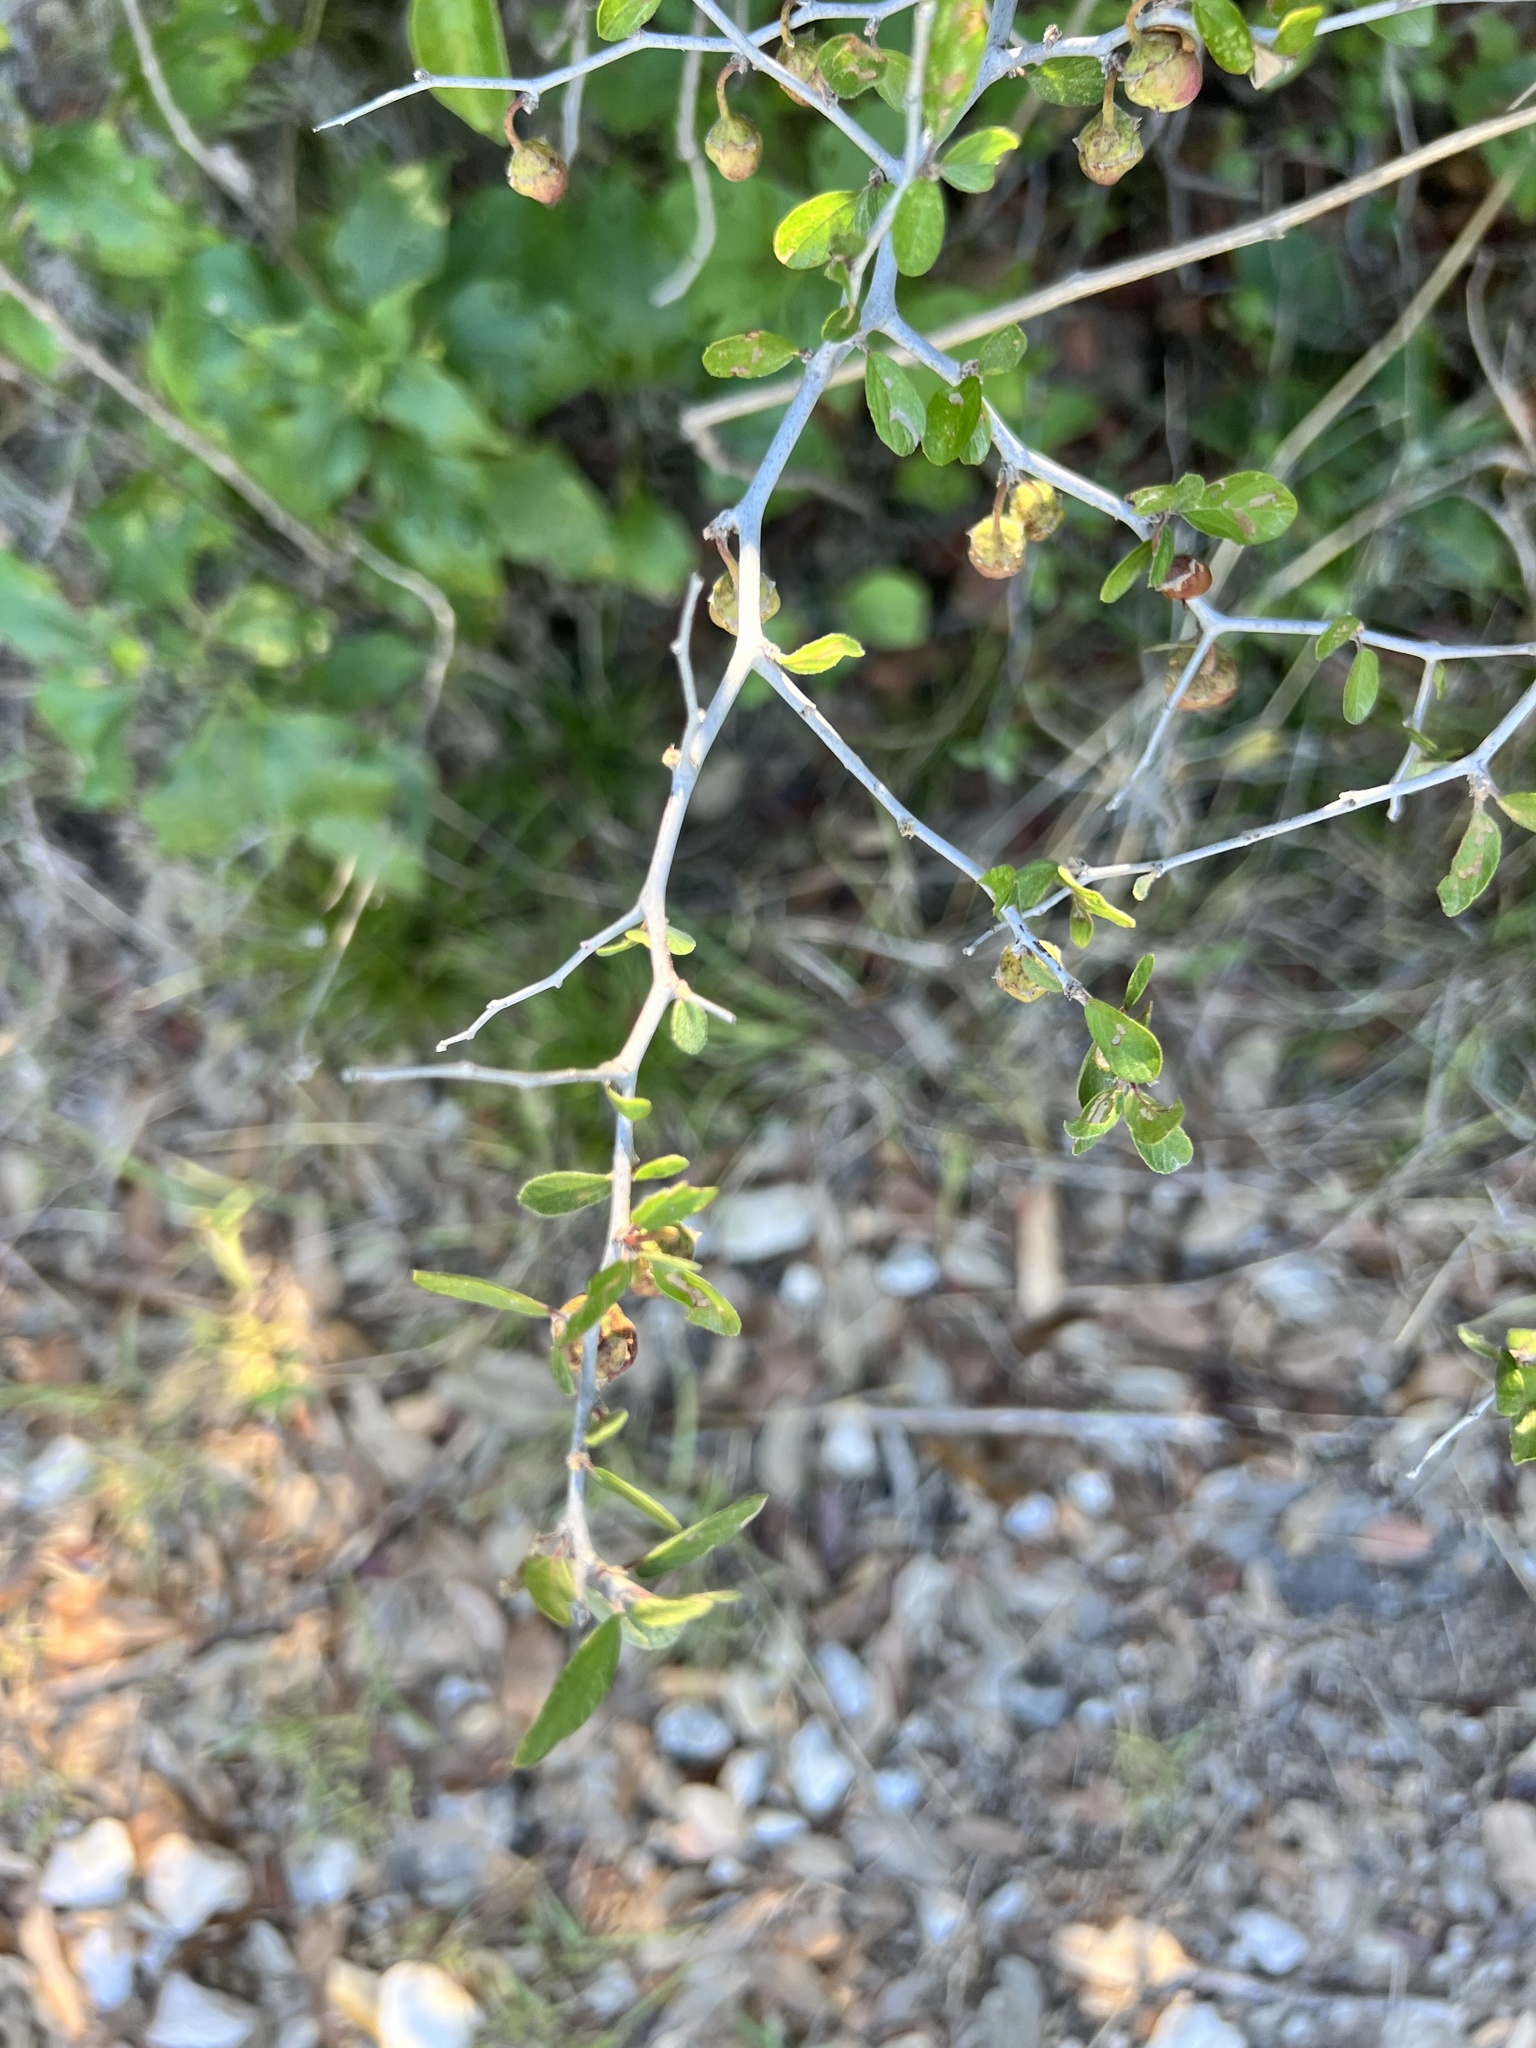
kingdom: Plantae
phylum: Tracheophyta
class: Magnoliopsida
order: Rosales
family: Rhamnaceae
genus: Colubrina
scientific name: Colubrina texensis
